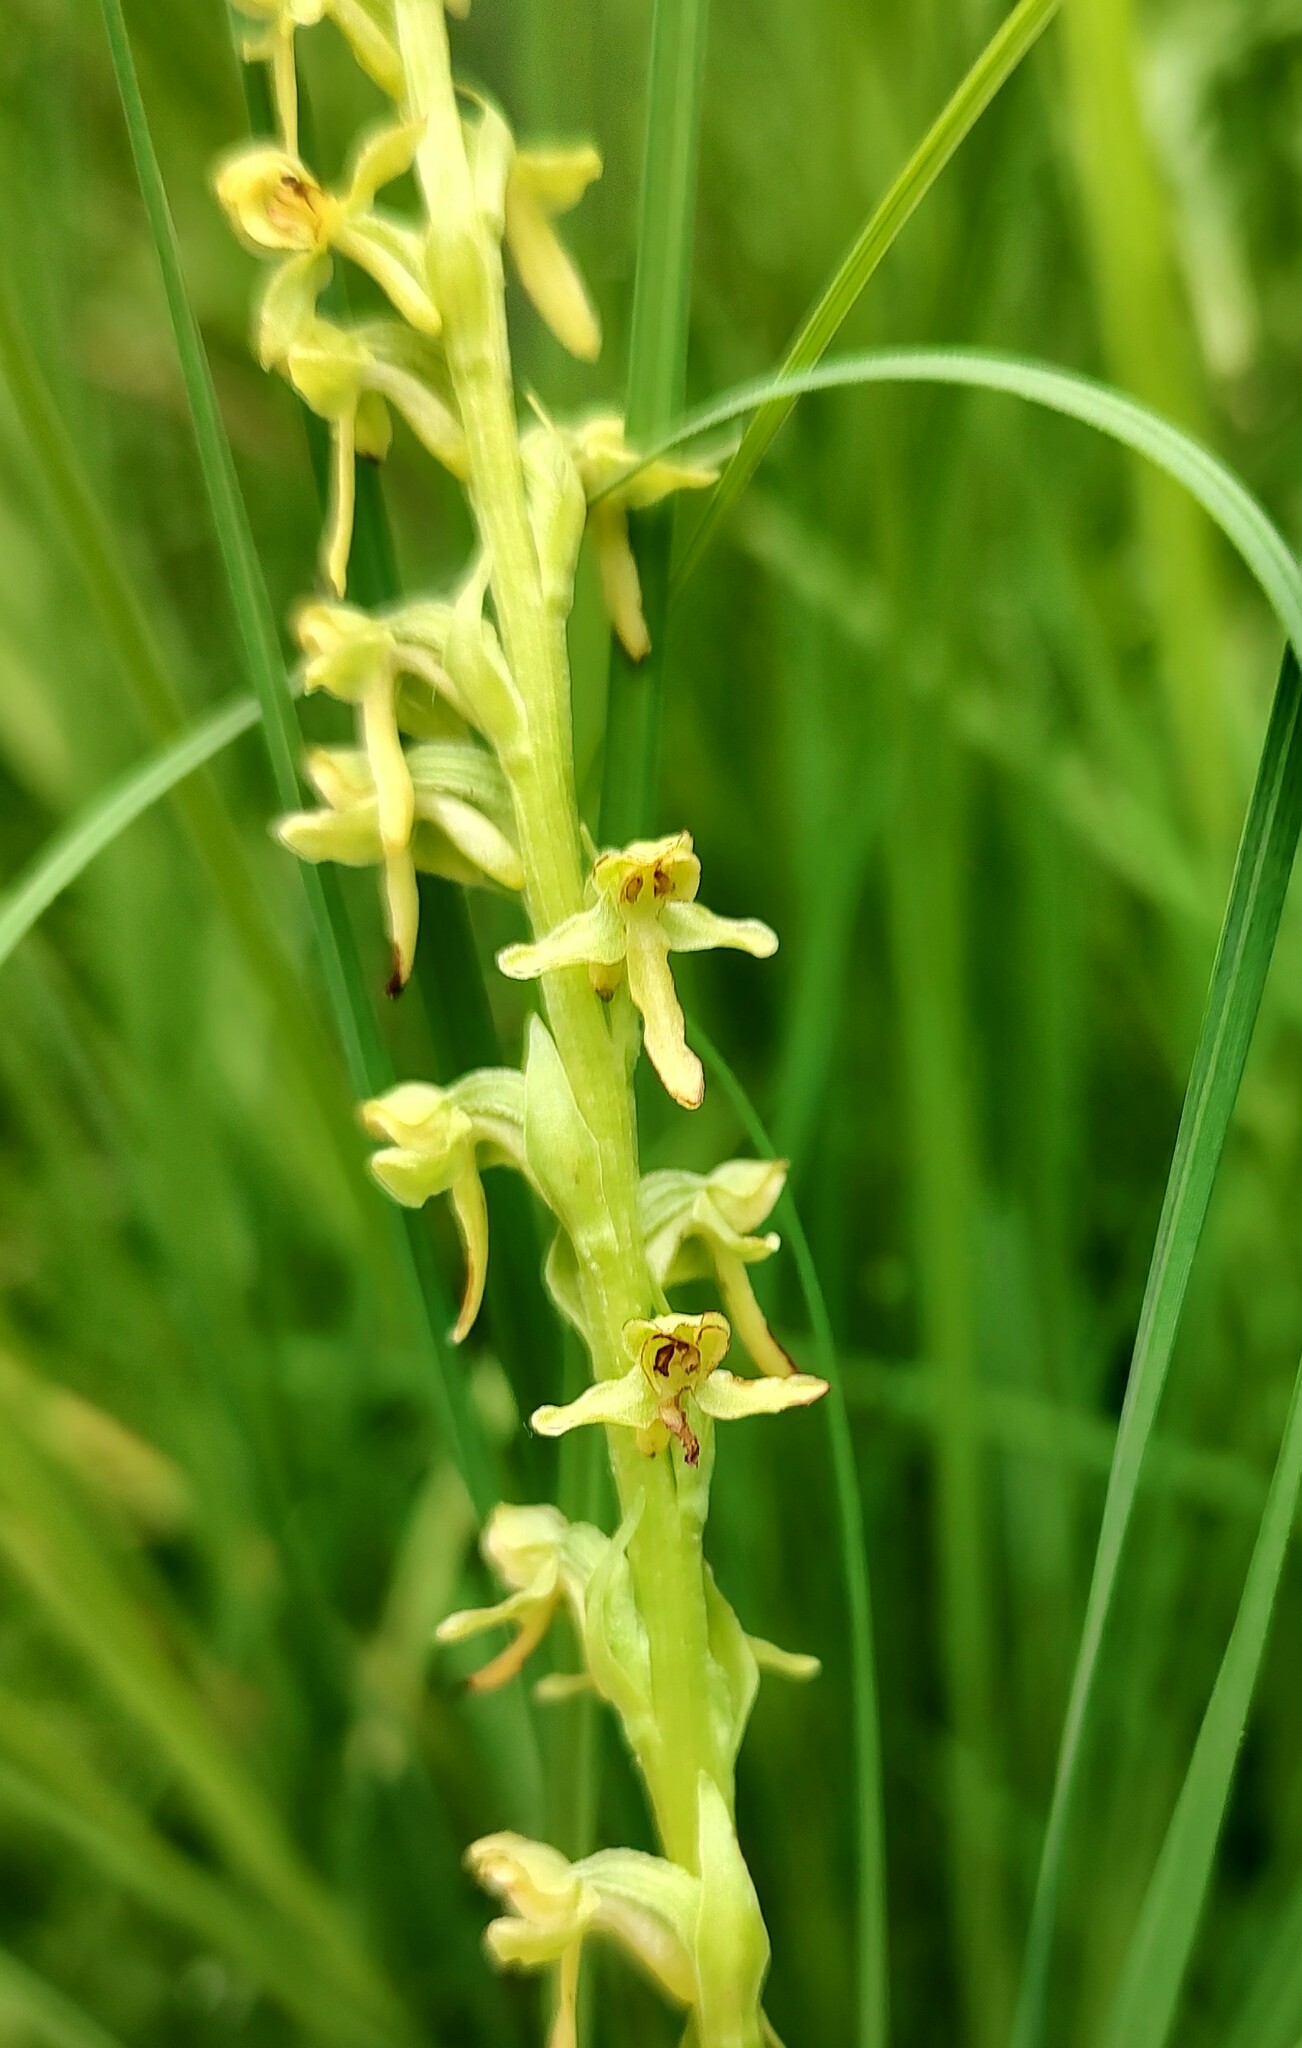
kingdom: Plantae
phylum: Tracheophyta
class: Liliopsida
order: Asparagales
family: Orchidaceae
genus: Platanthera
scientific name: Platanthera stricta
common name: Slender bog orchid
